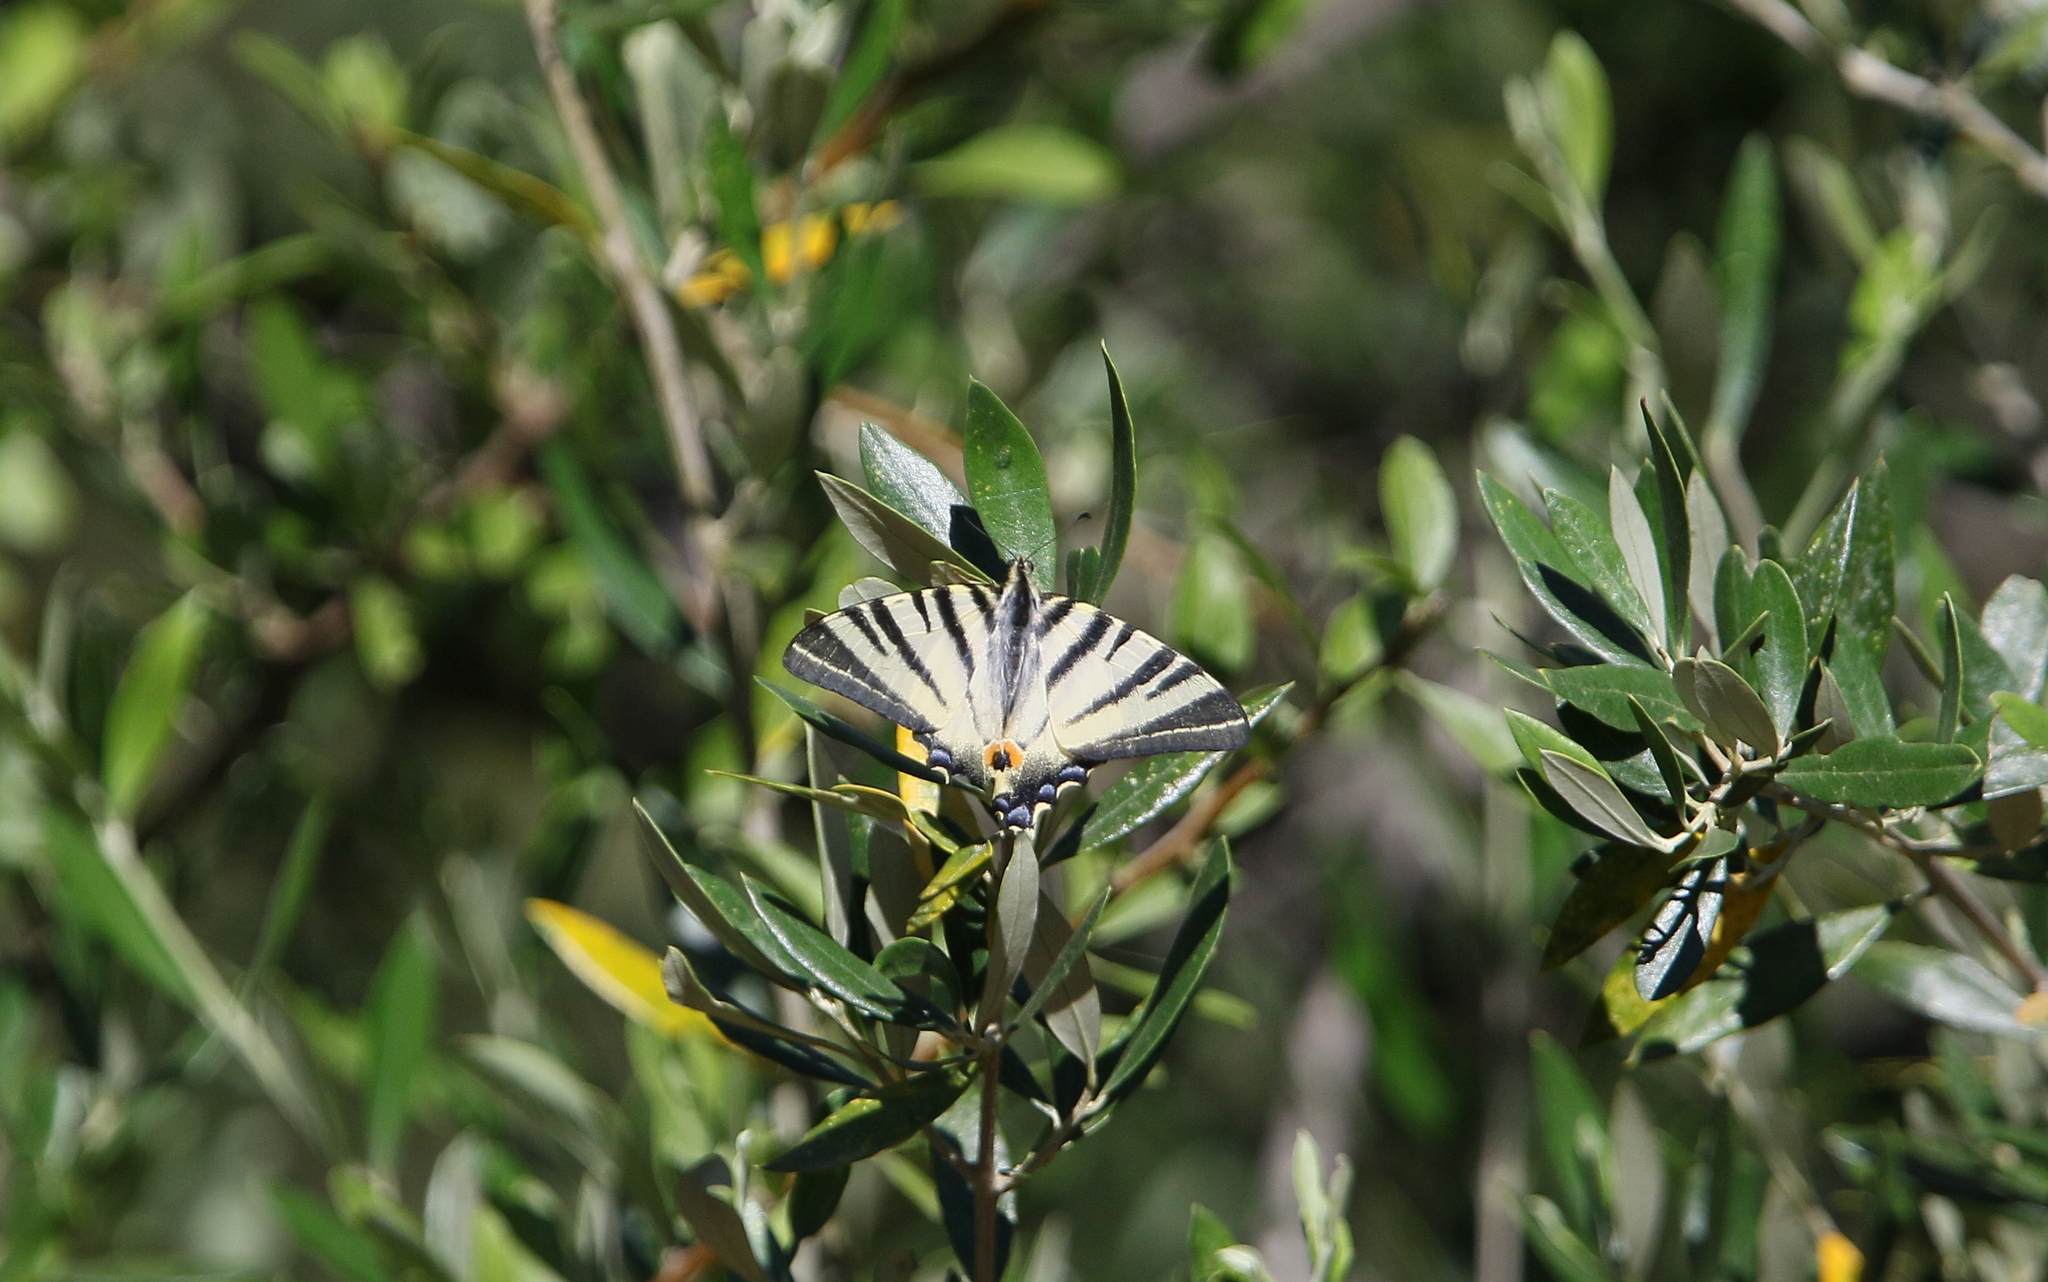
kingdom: Animalia
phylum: Arthropoda
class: Insecta
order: Lepidoptera
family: Papilionidae
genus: Iphiclides
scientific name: Iphiclides podalirius
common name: Scarce swallowtail
